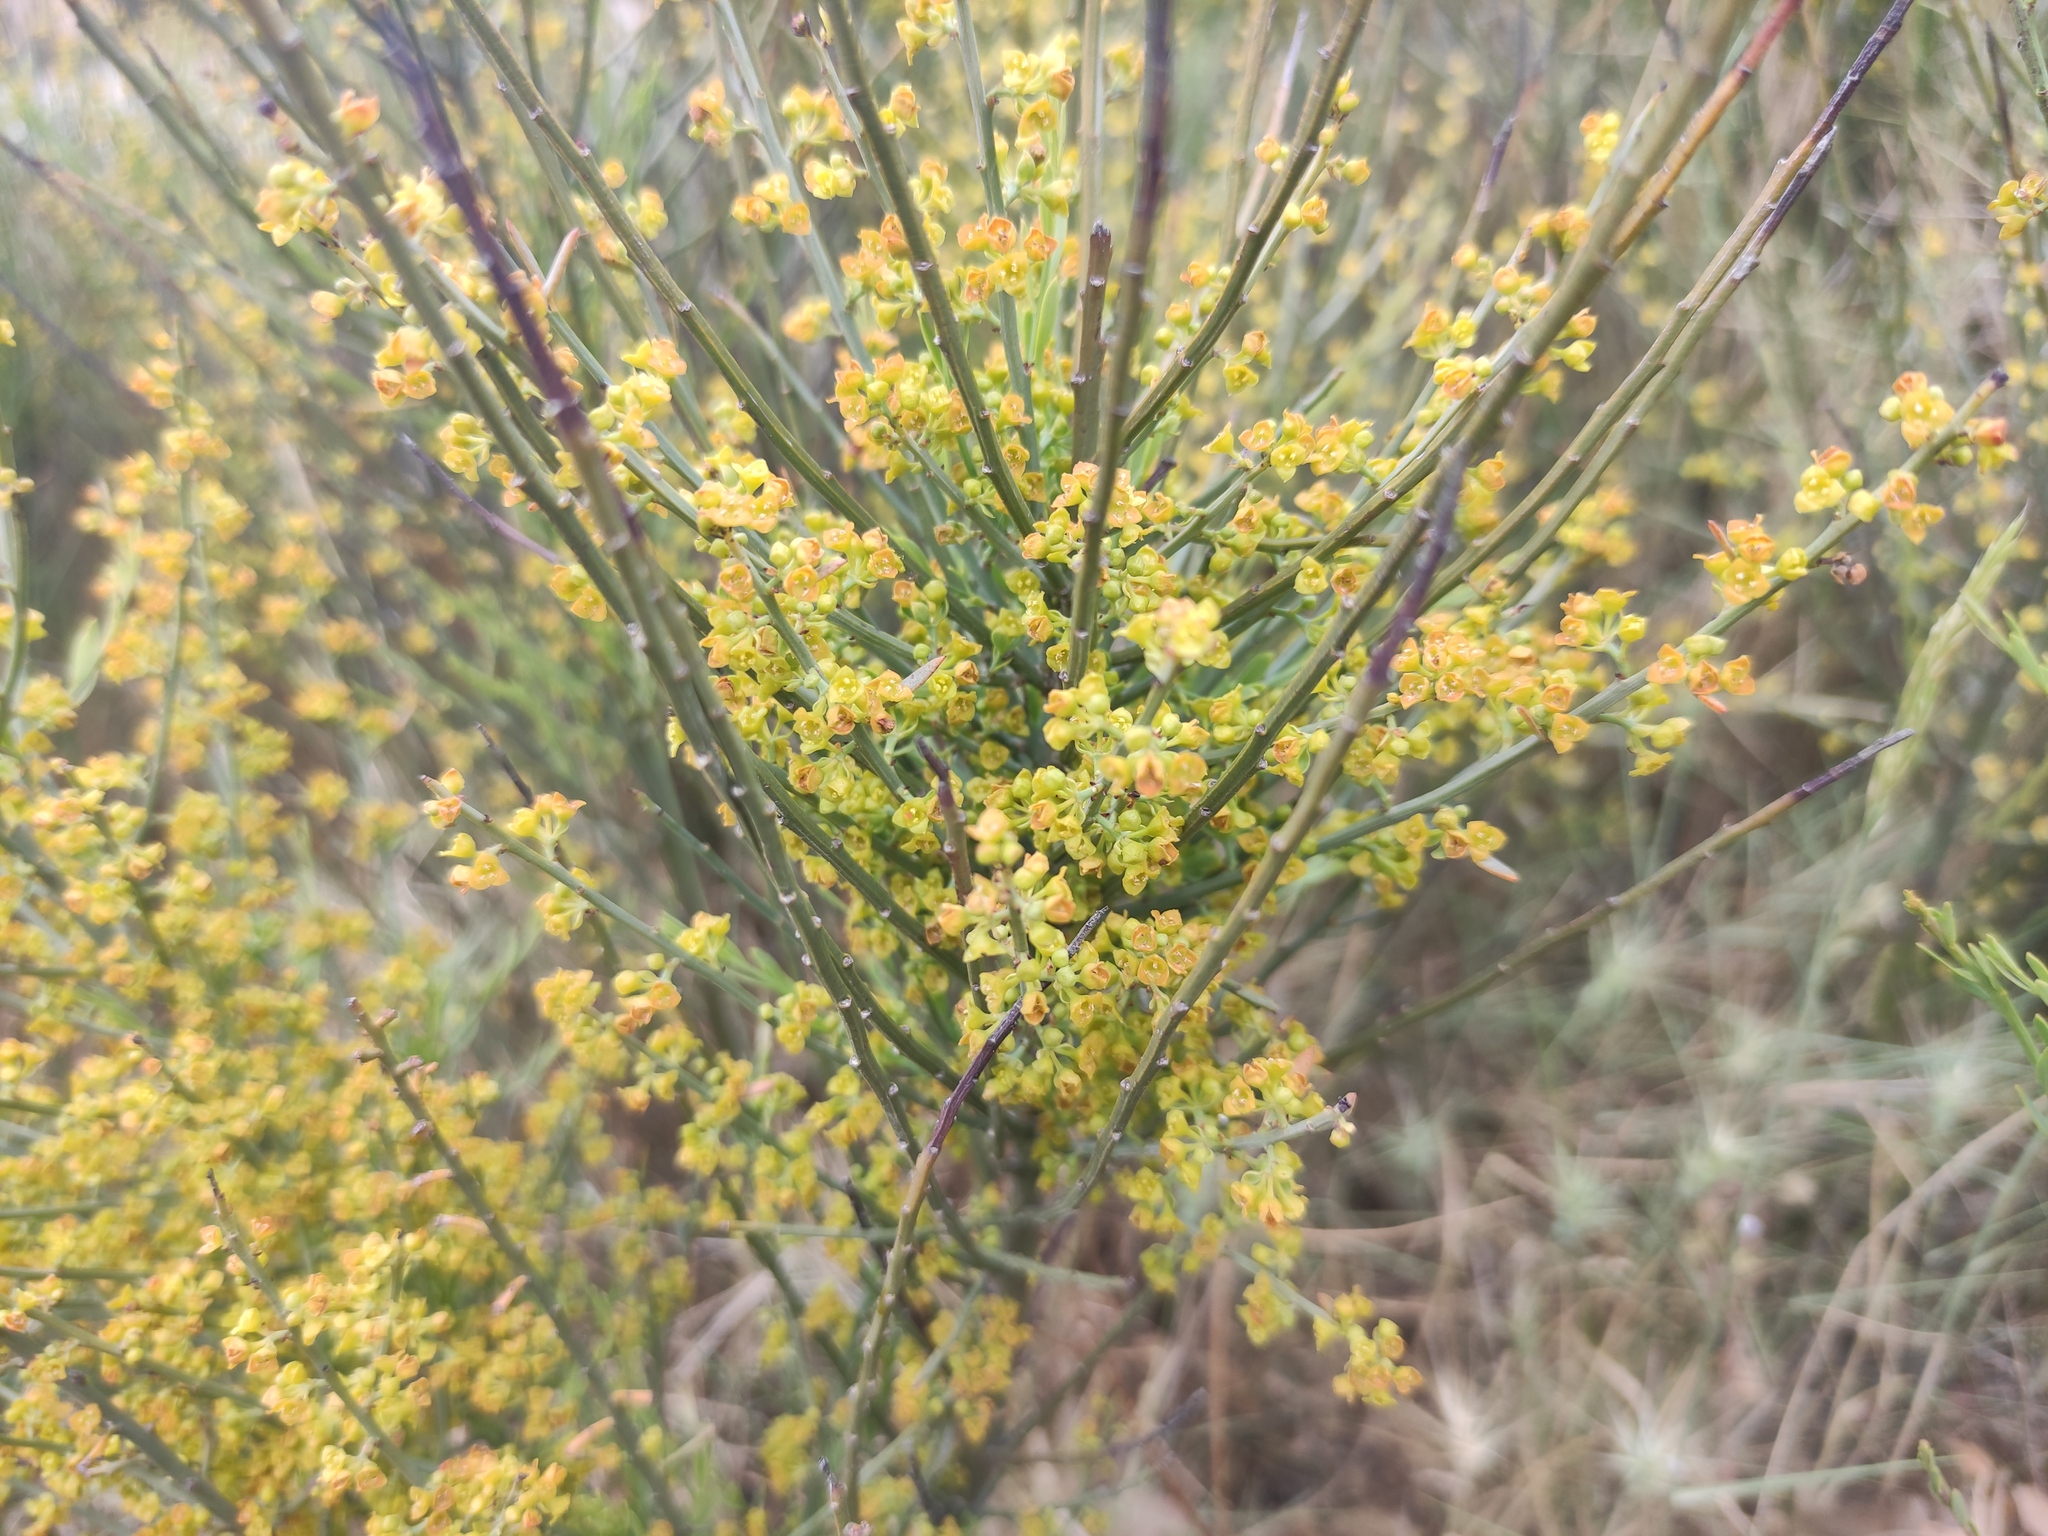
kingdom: Plantae
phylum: Tracheophyta
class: Magnoliopsida
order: Santalales
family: Santalaceae
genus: Osyris
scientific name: Osyris alba
